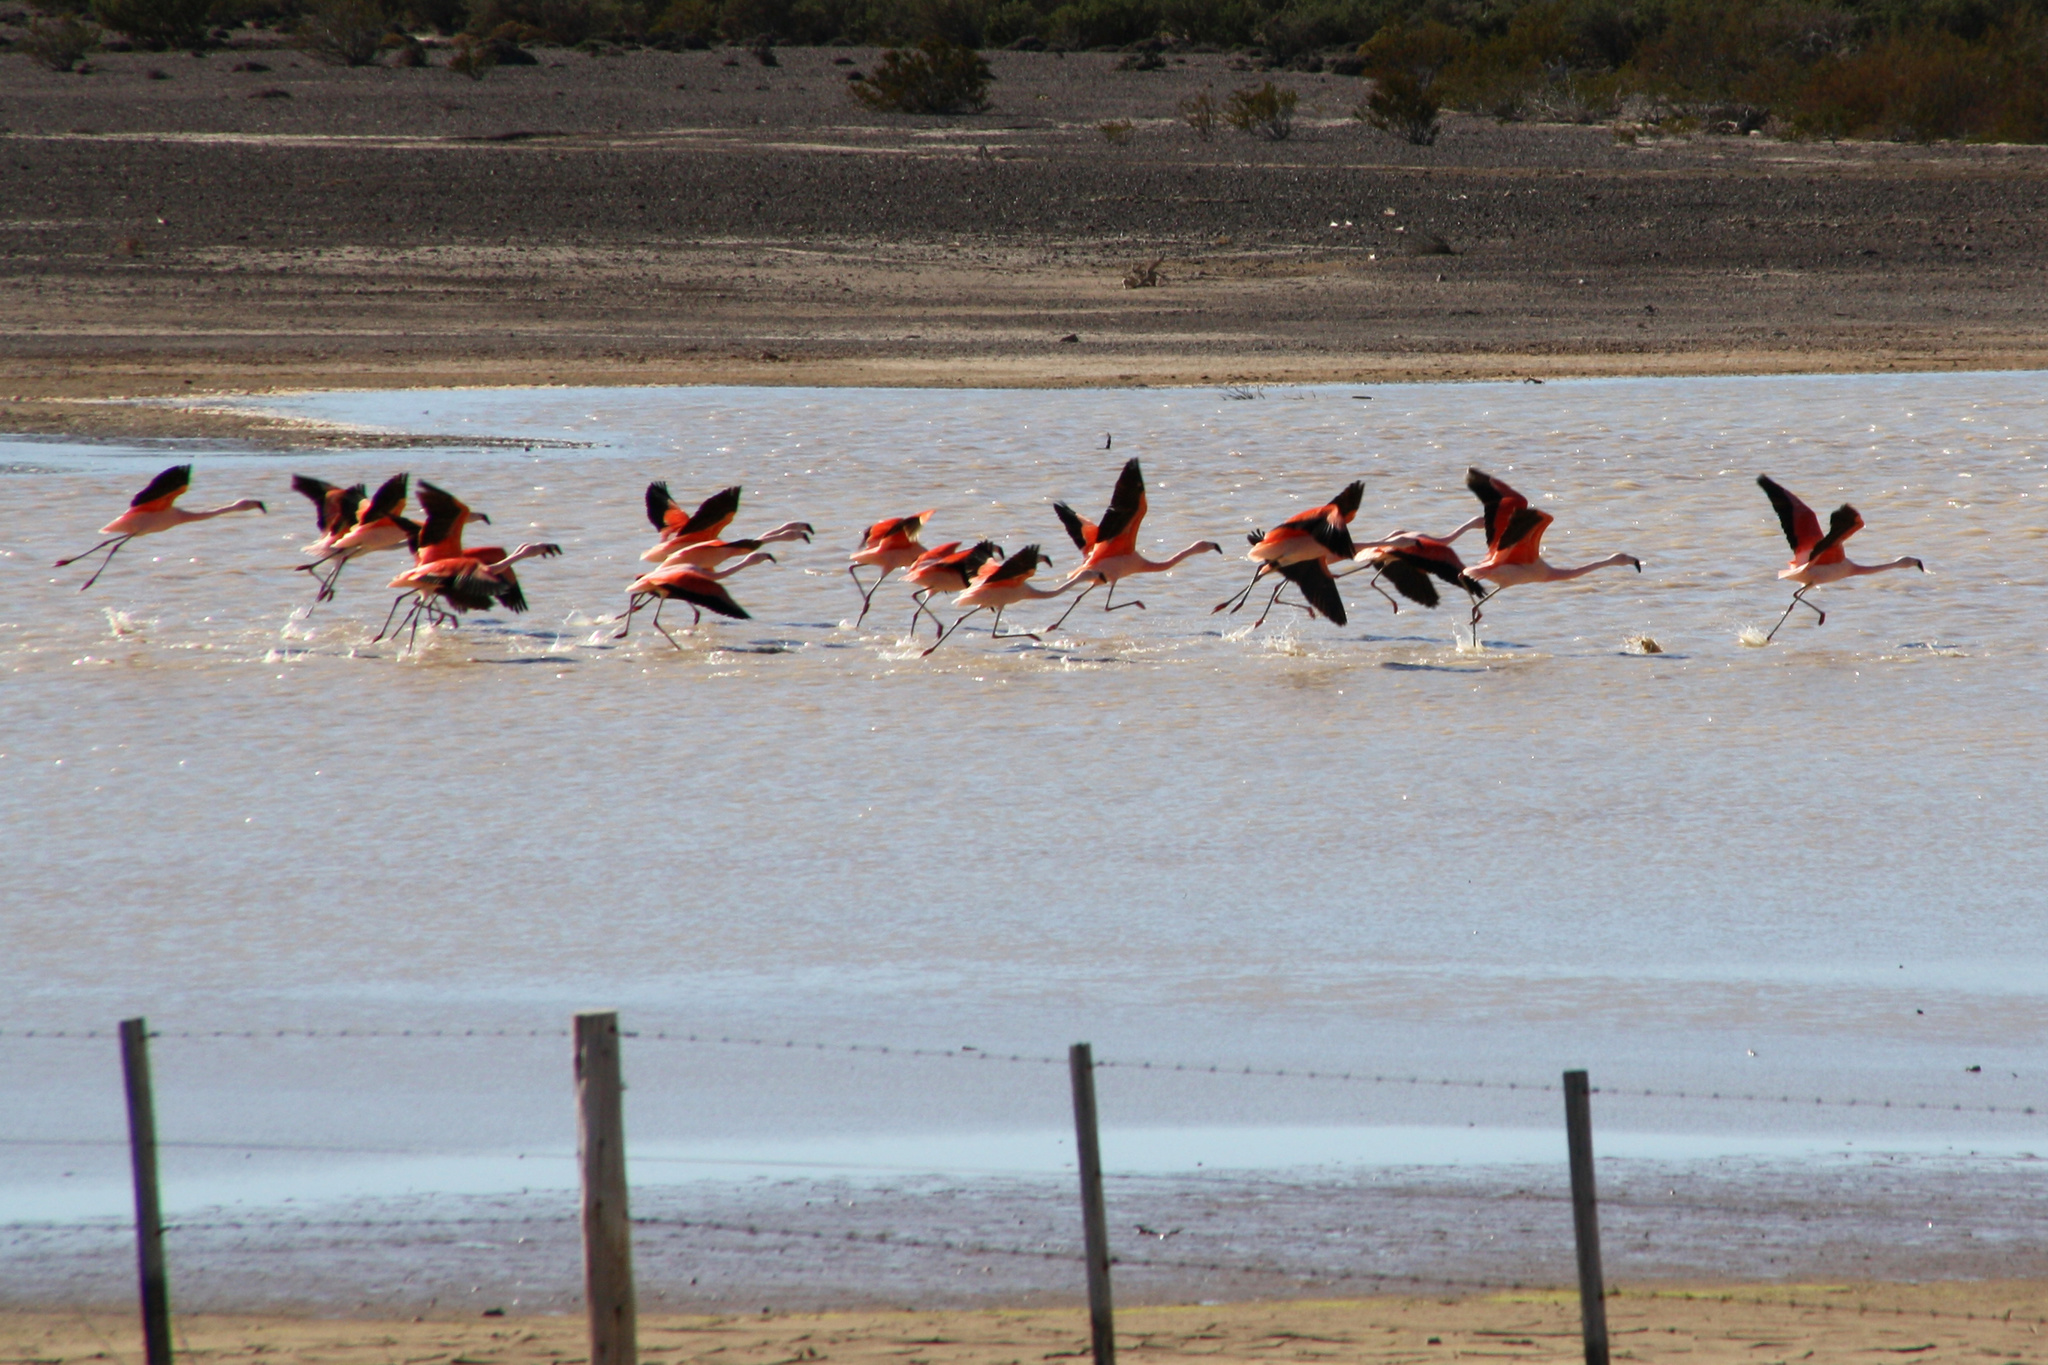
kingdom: Animalia
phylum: Chordata
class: Aves
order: Phoenicopteriformes
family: Phoenicopteridae
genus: Phoenicopterus
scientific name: Phoenicopterus chilensis
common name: Chilean flamingo
